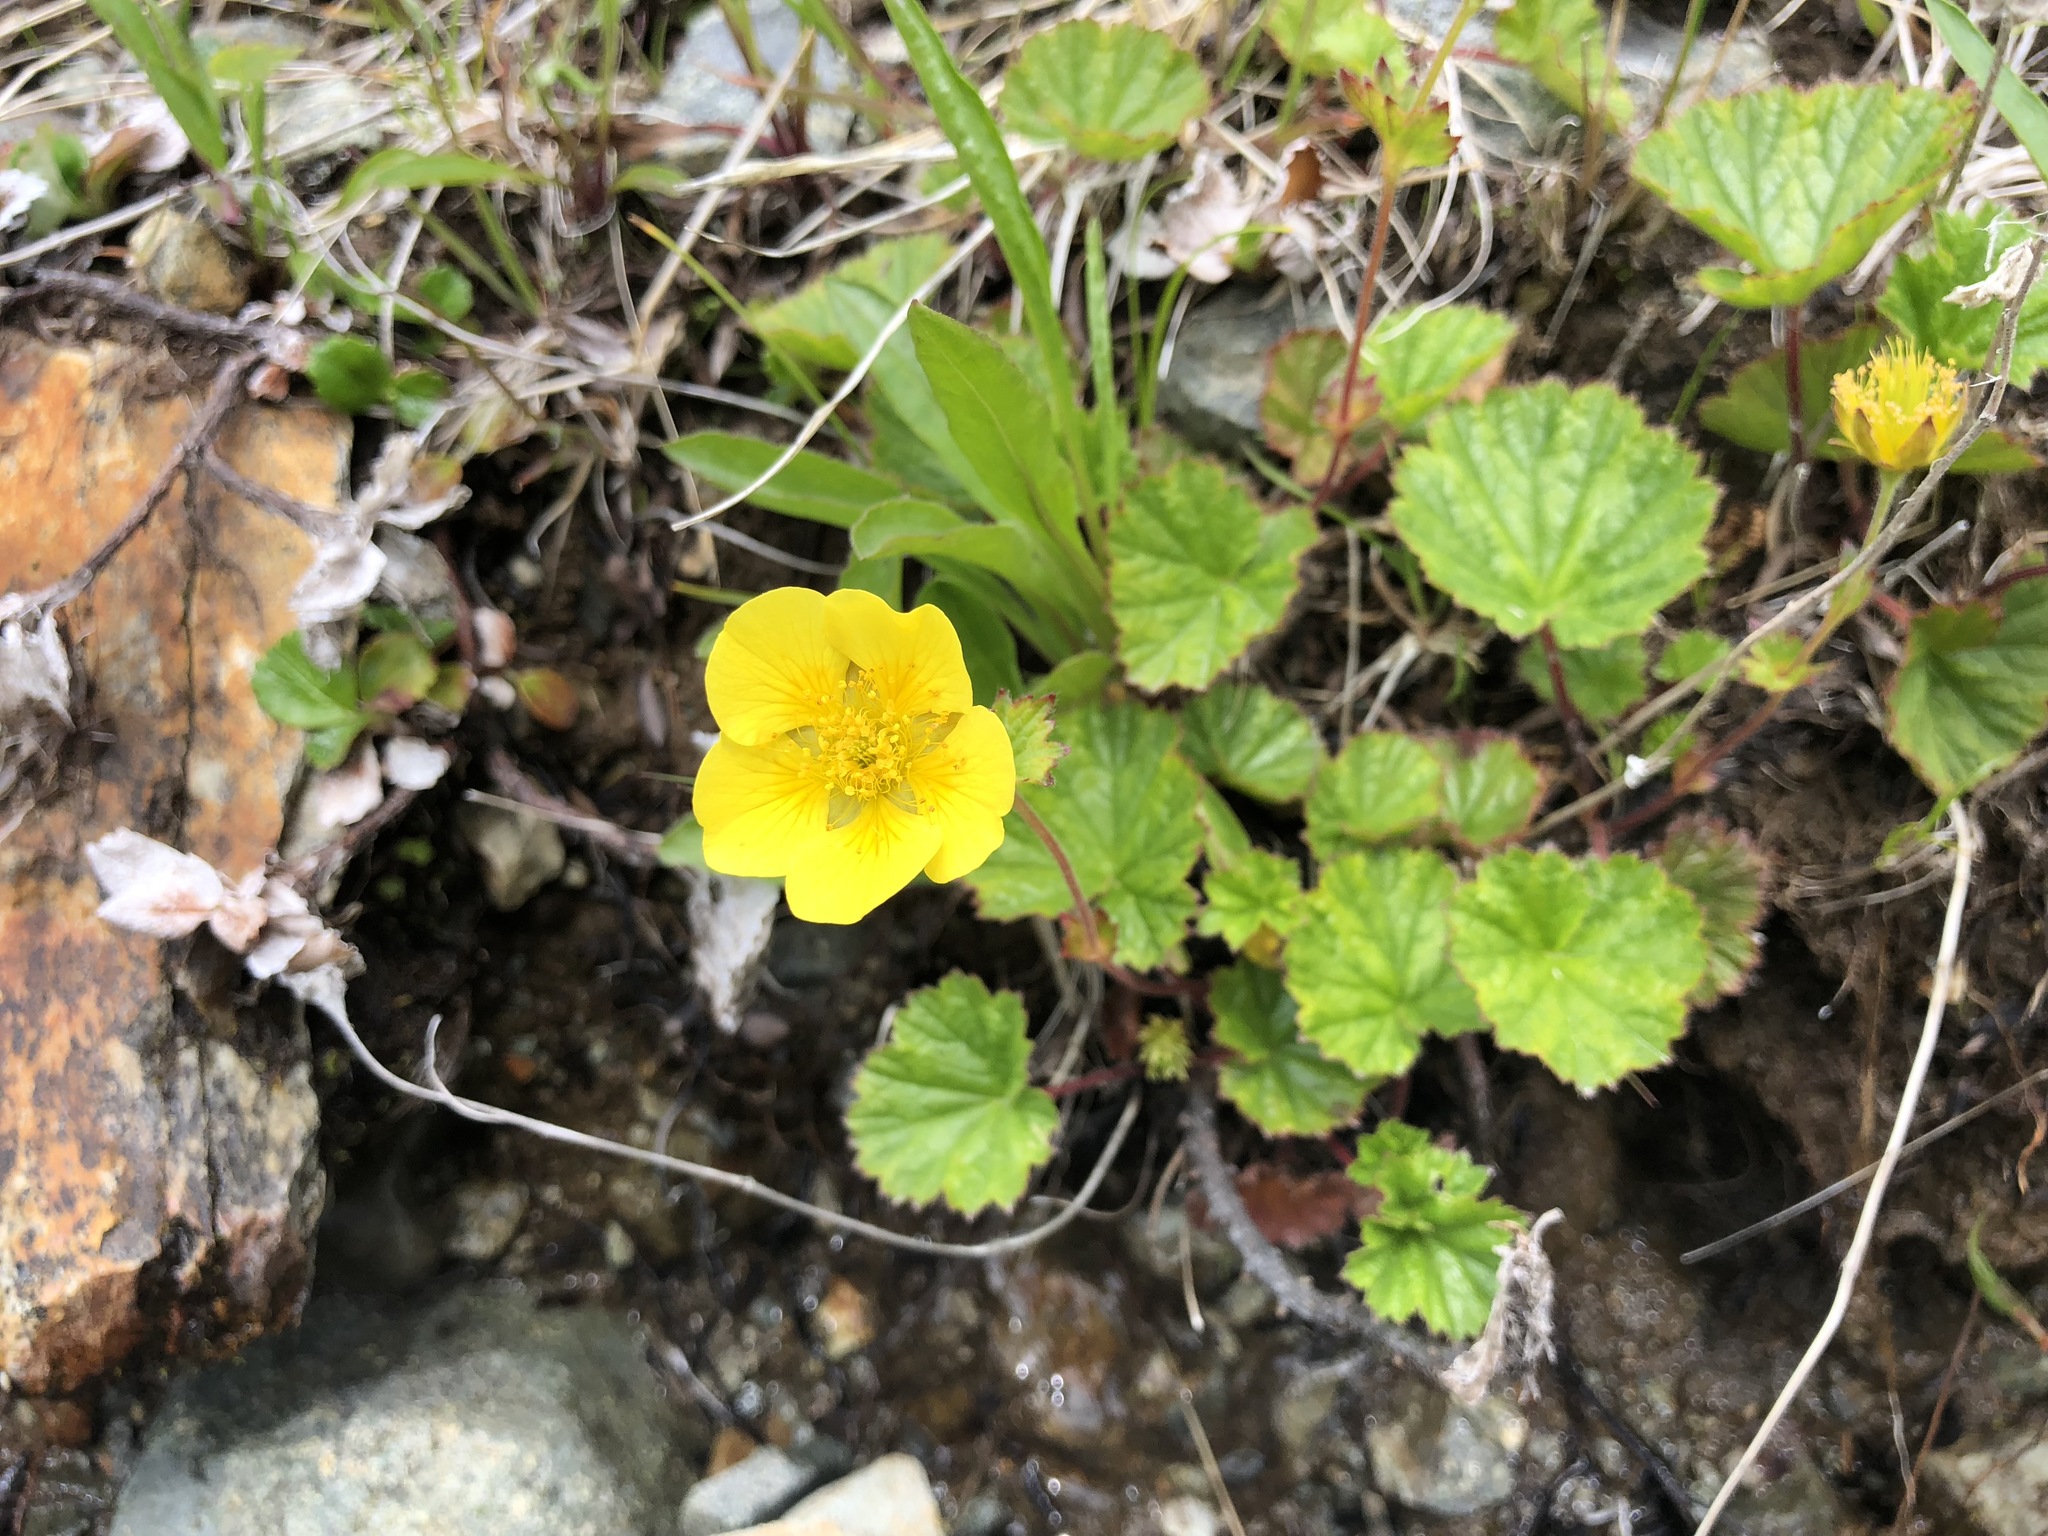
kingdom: Plantae
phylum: Tracheophyta
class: Magnoliopsida
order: Rosales
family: Rosaceae
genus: Geum
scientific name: Geum calthifolium
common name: Caltha-leaved avens
